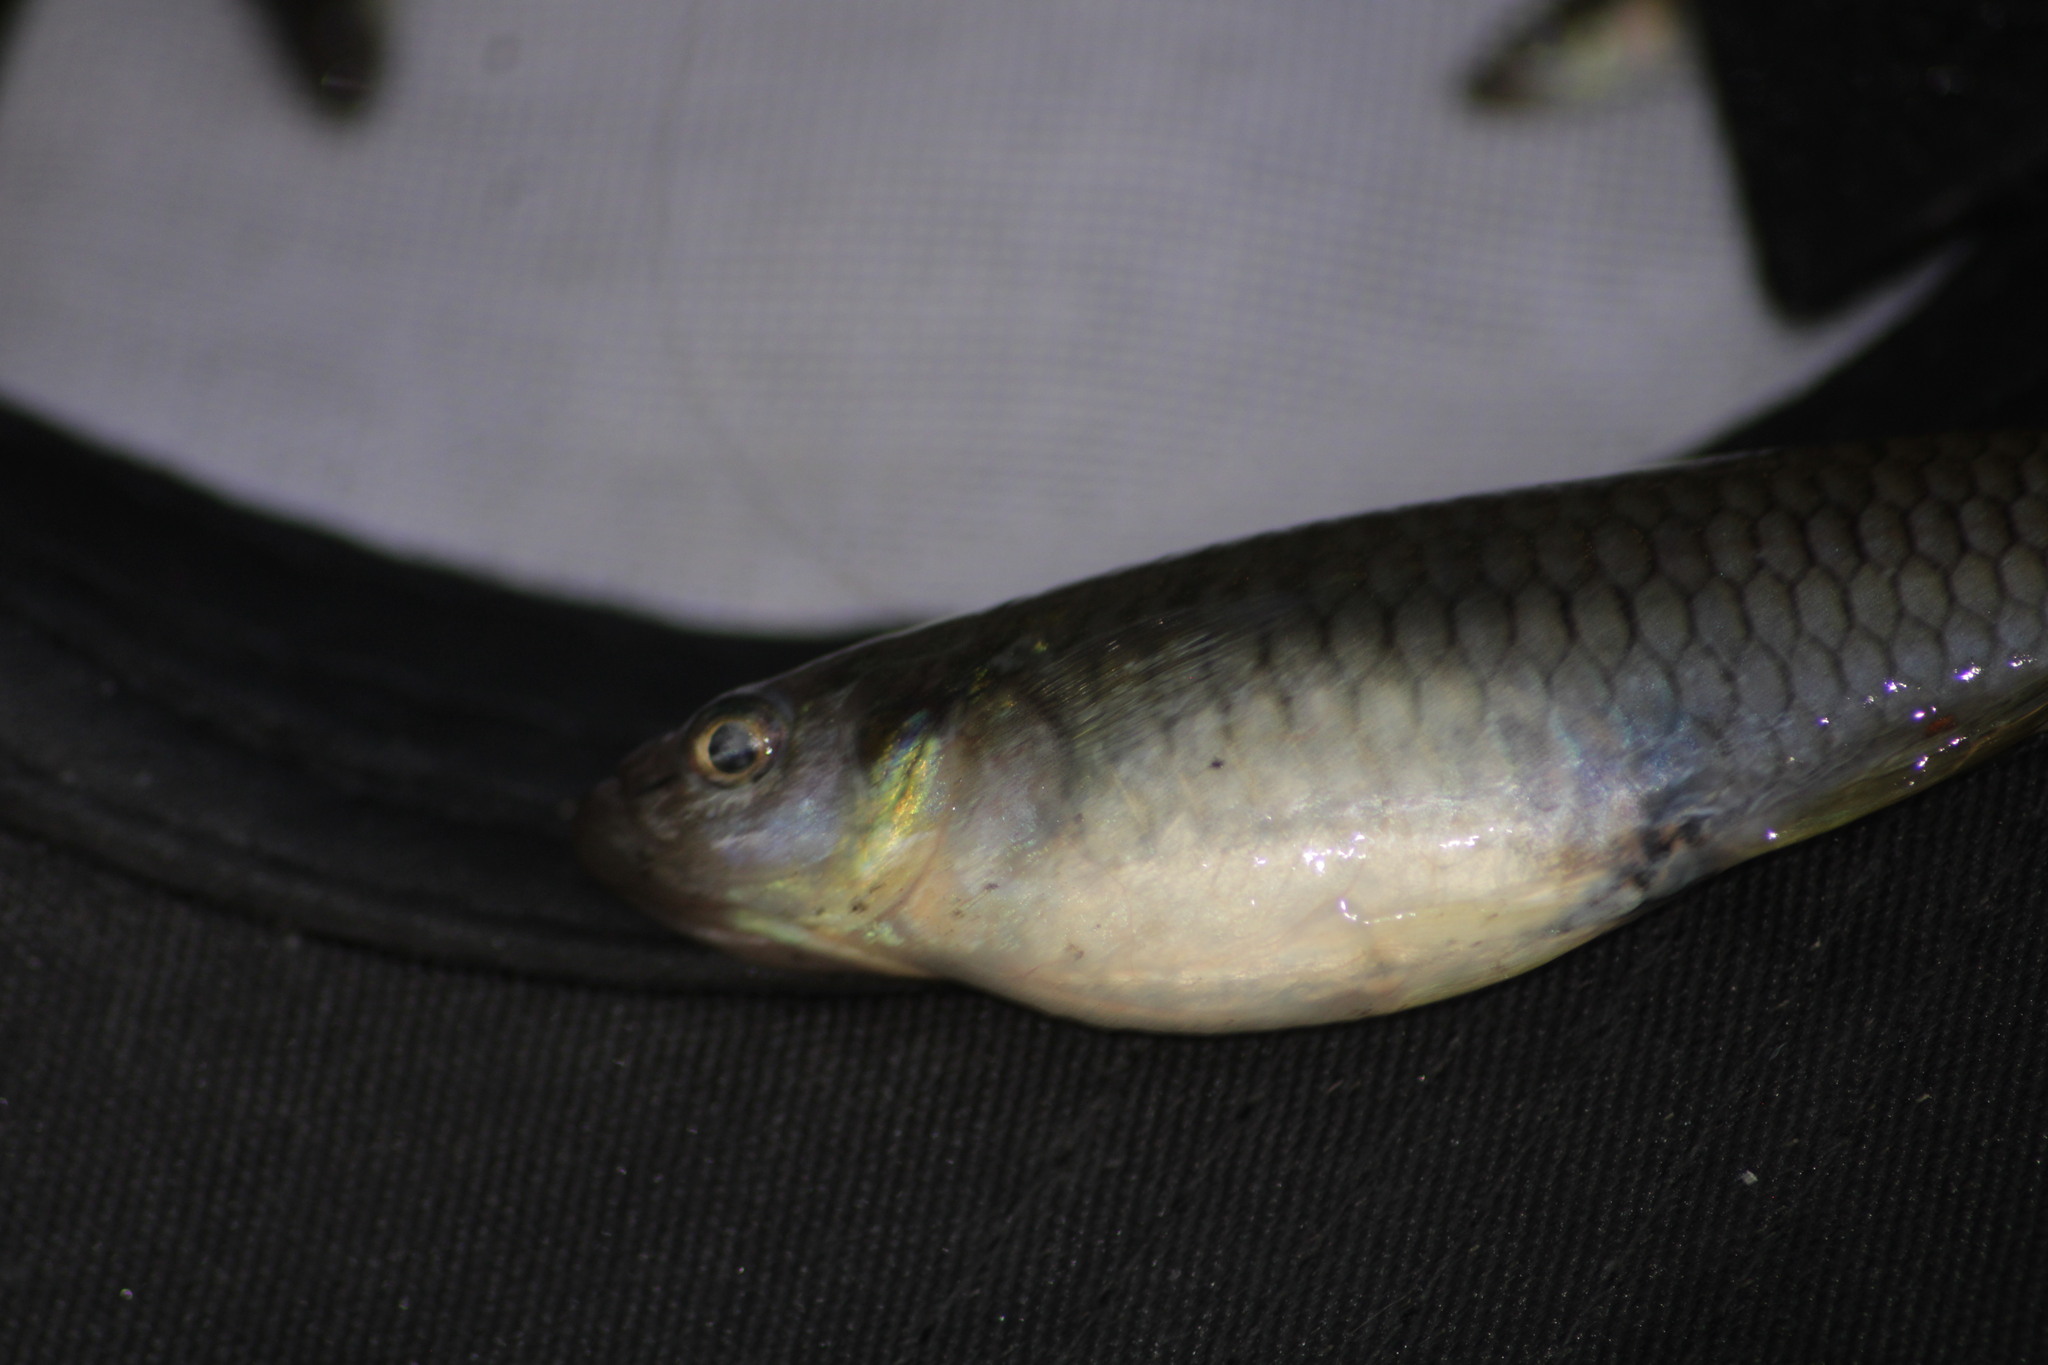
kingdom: Animalia
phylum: Chordata
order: Cyprinodontiformes
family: Poeciliidae
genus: Pseudoxiphophorus
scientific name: Pseudoxiphophorus bimaculatus
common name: Twospot livebearer
